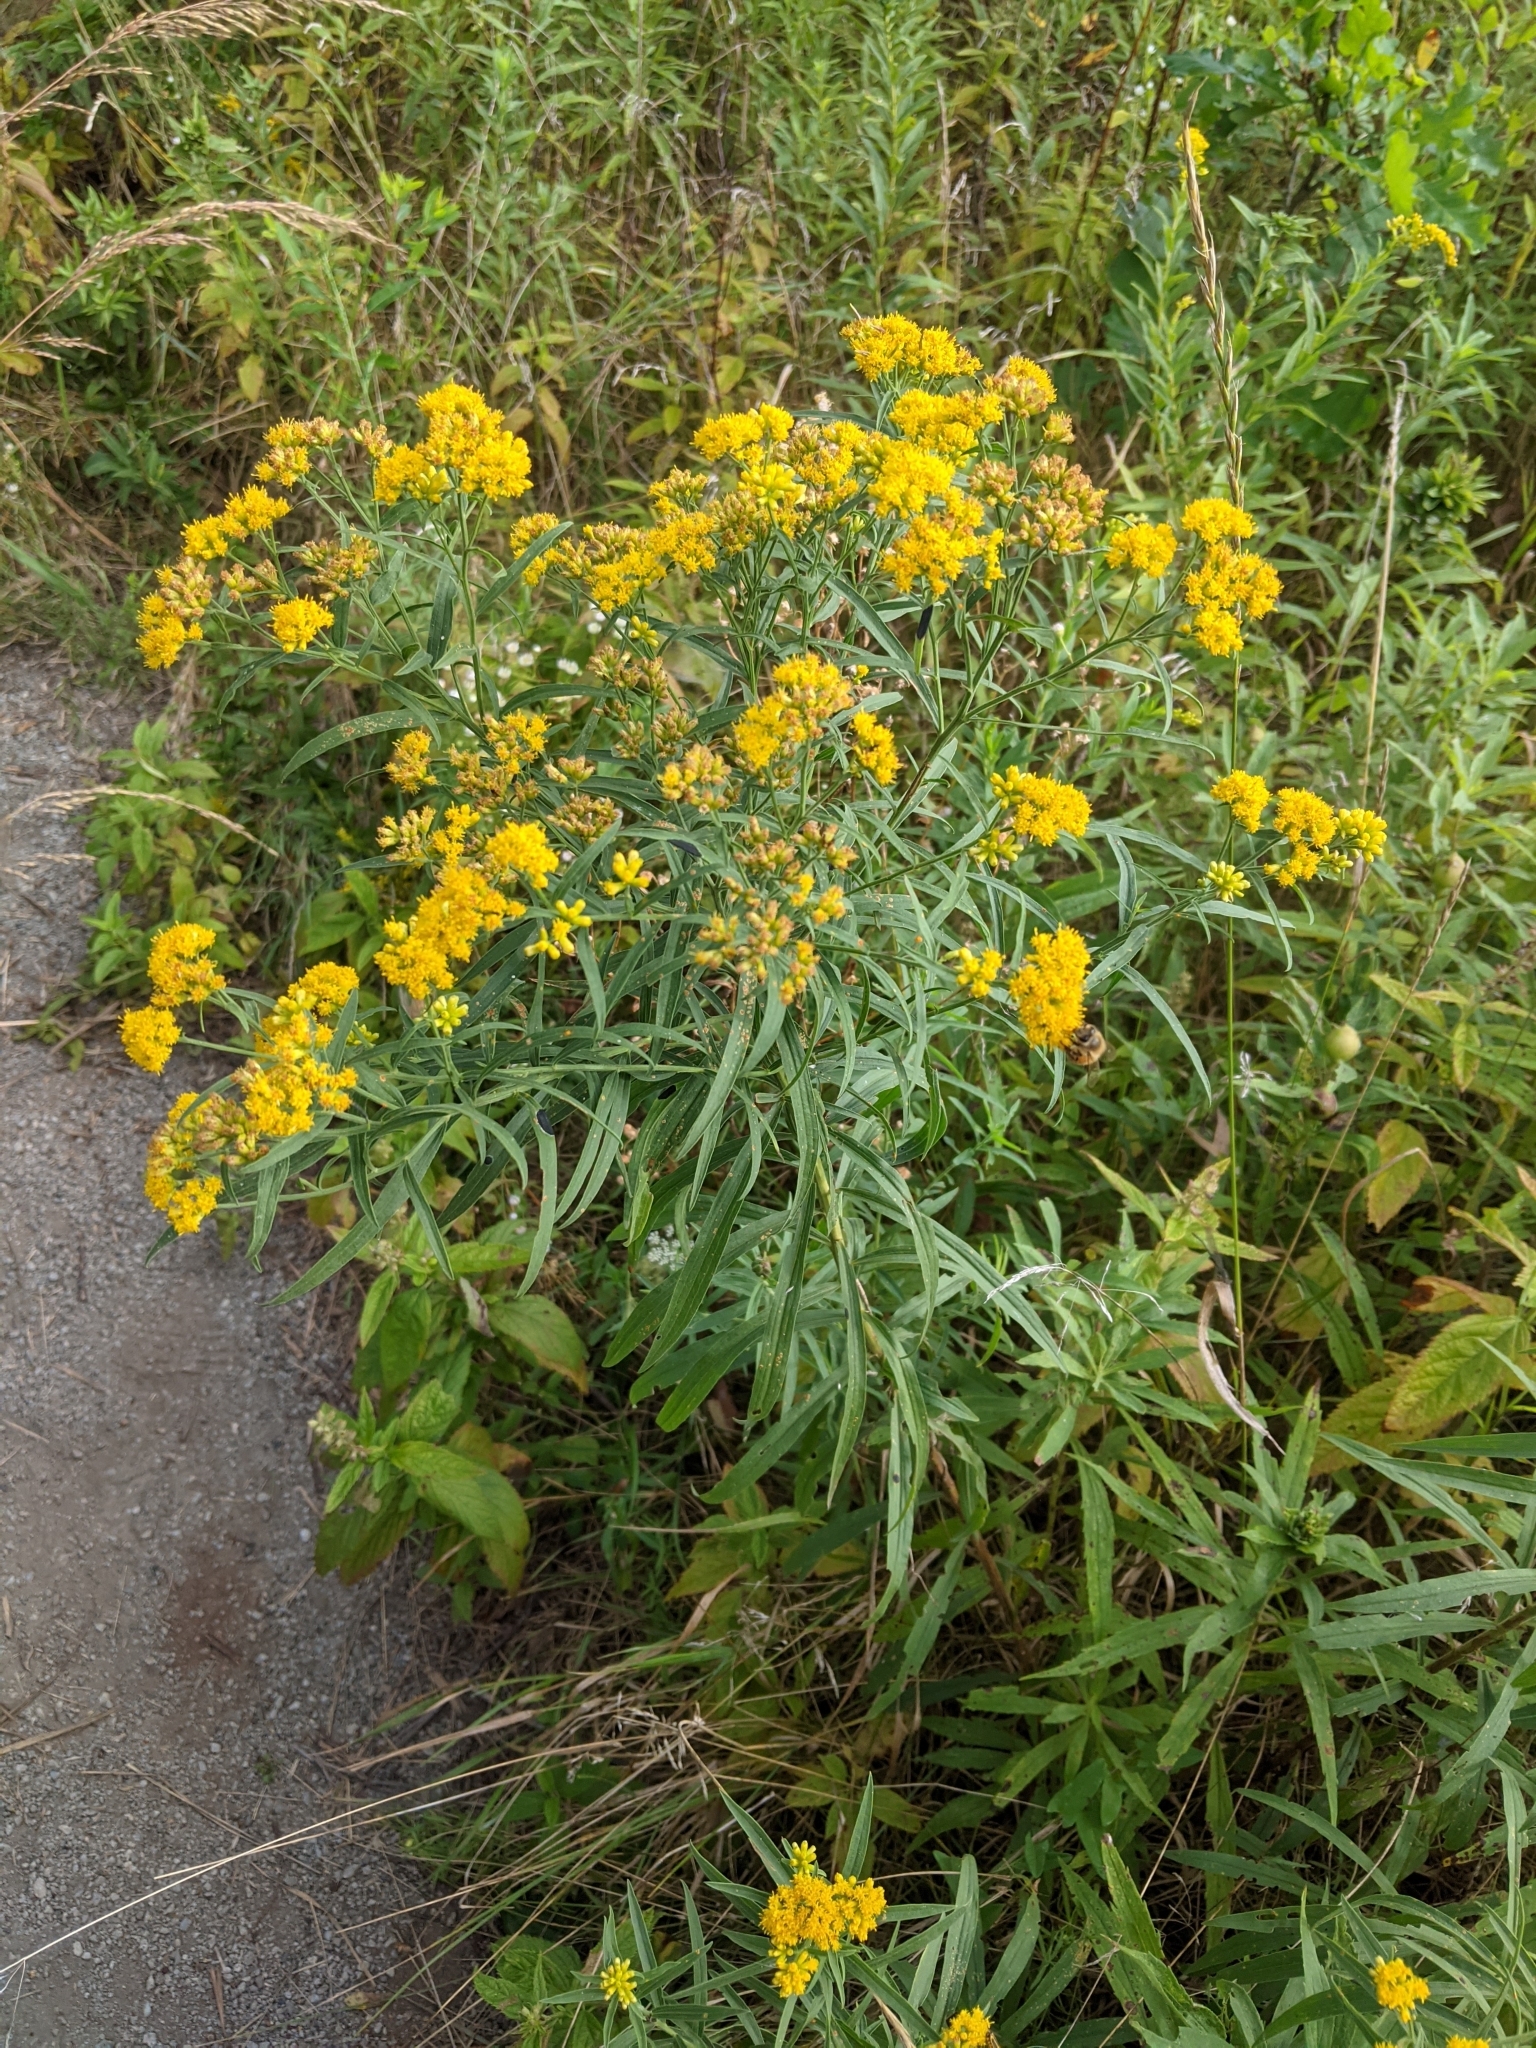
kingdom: Plantae
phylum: Tracheophyta
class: Magnoliopsida
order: Asterales
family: Asteraceae
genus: Euthamia
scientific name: Euthamia graminifolia
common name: Common goldentop
